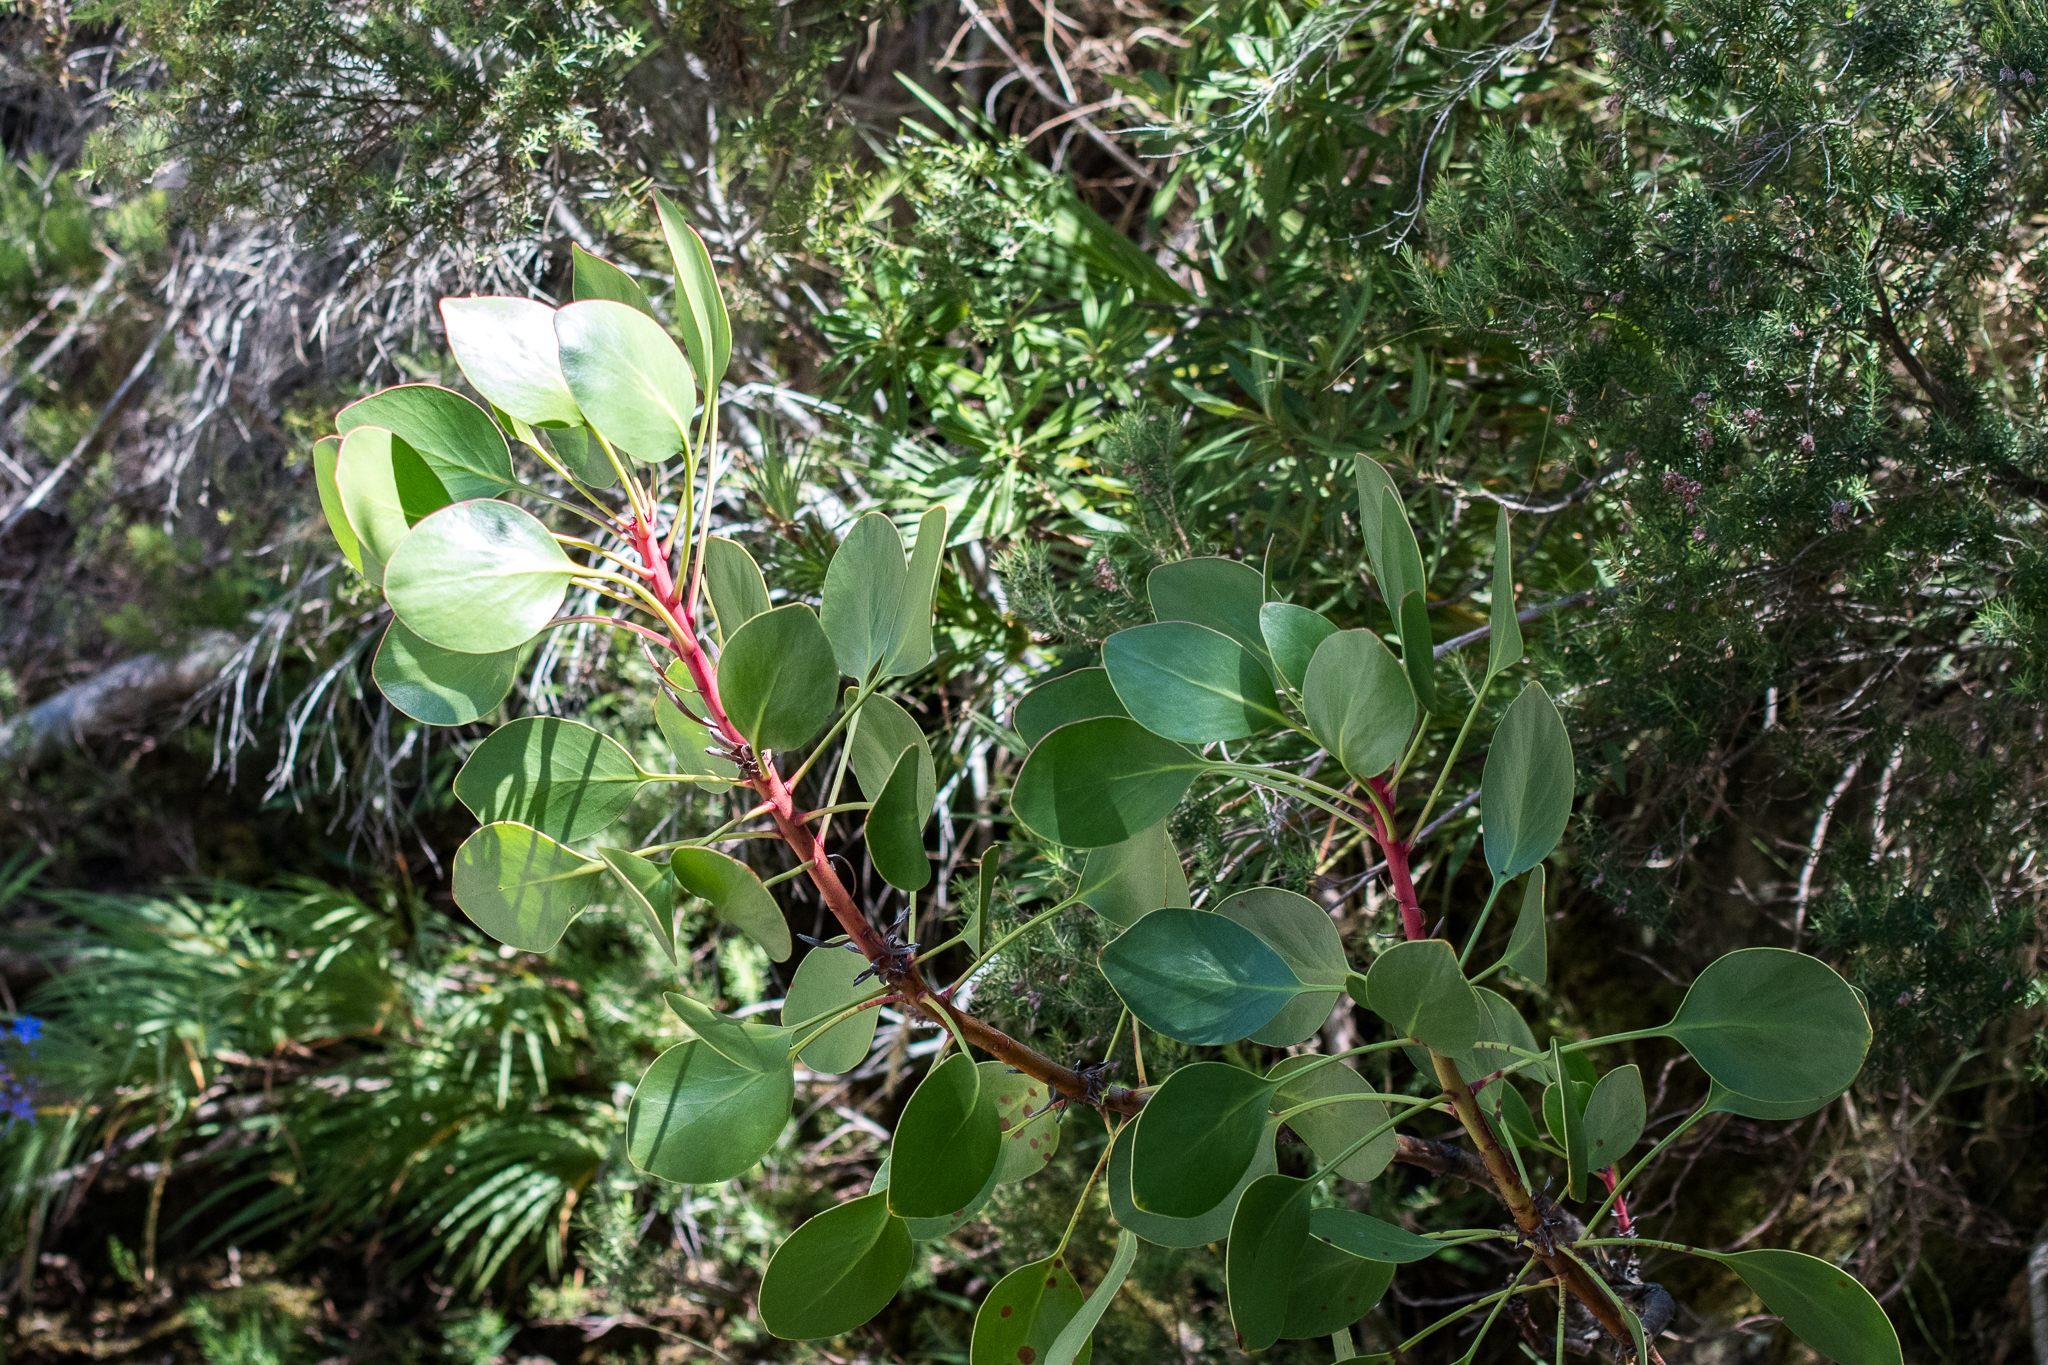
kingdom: Plantae
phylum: Tracheophyta
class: Magnoliopsida
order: Proteales
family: Proteaceae
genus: Protea
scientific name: Protea cynaroides
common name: King protea
